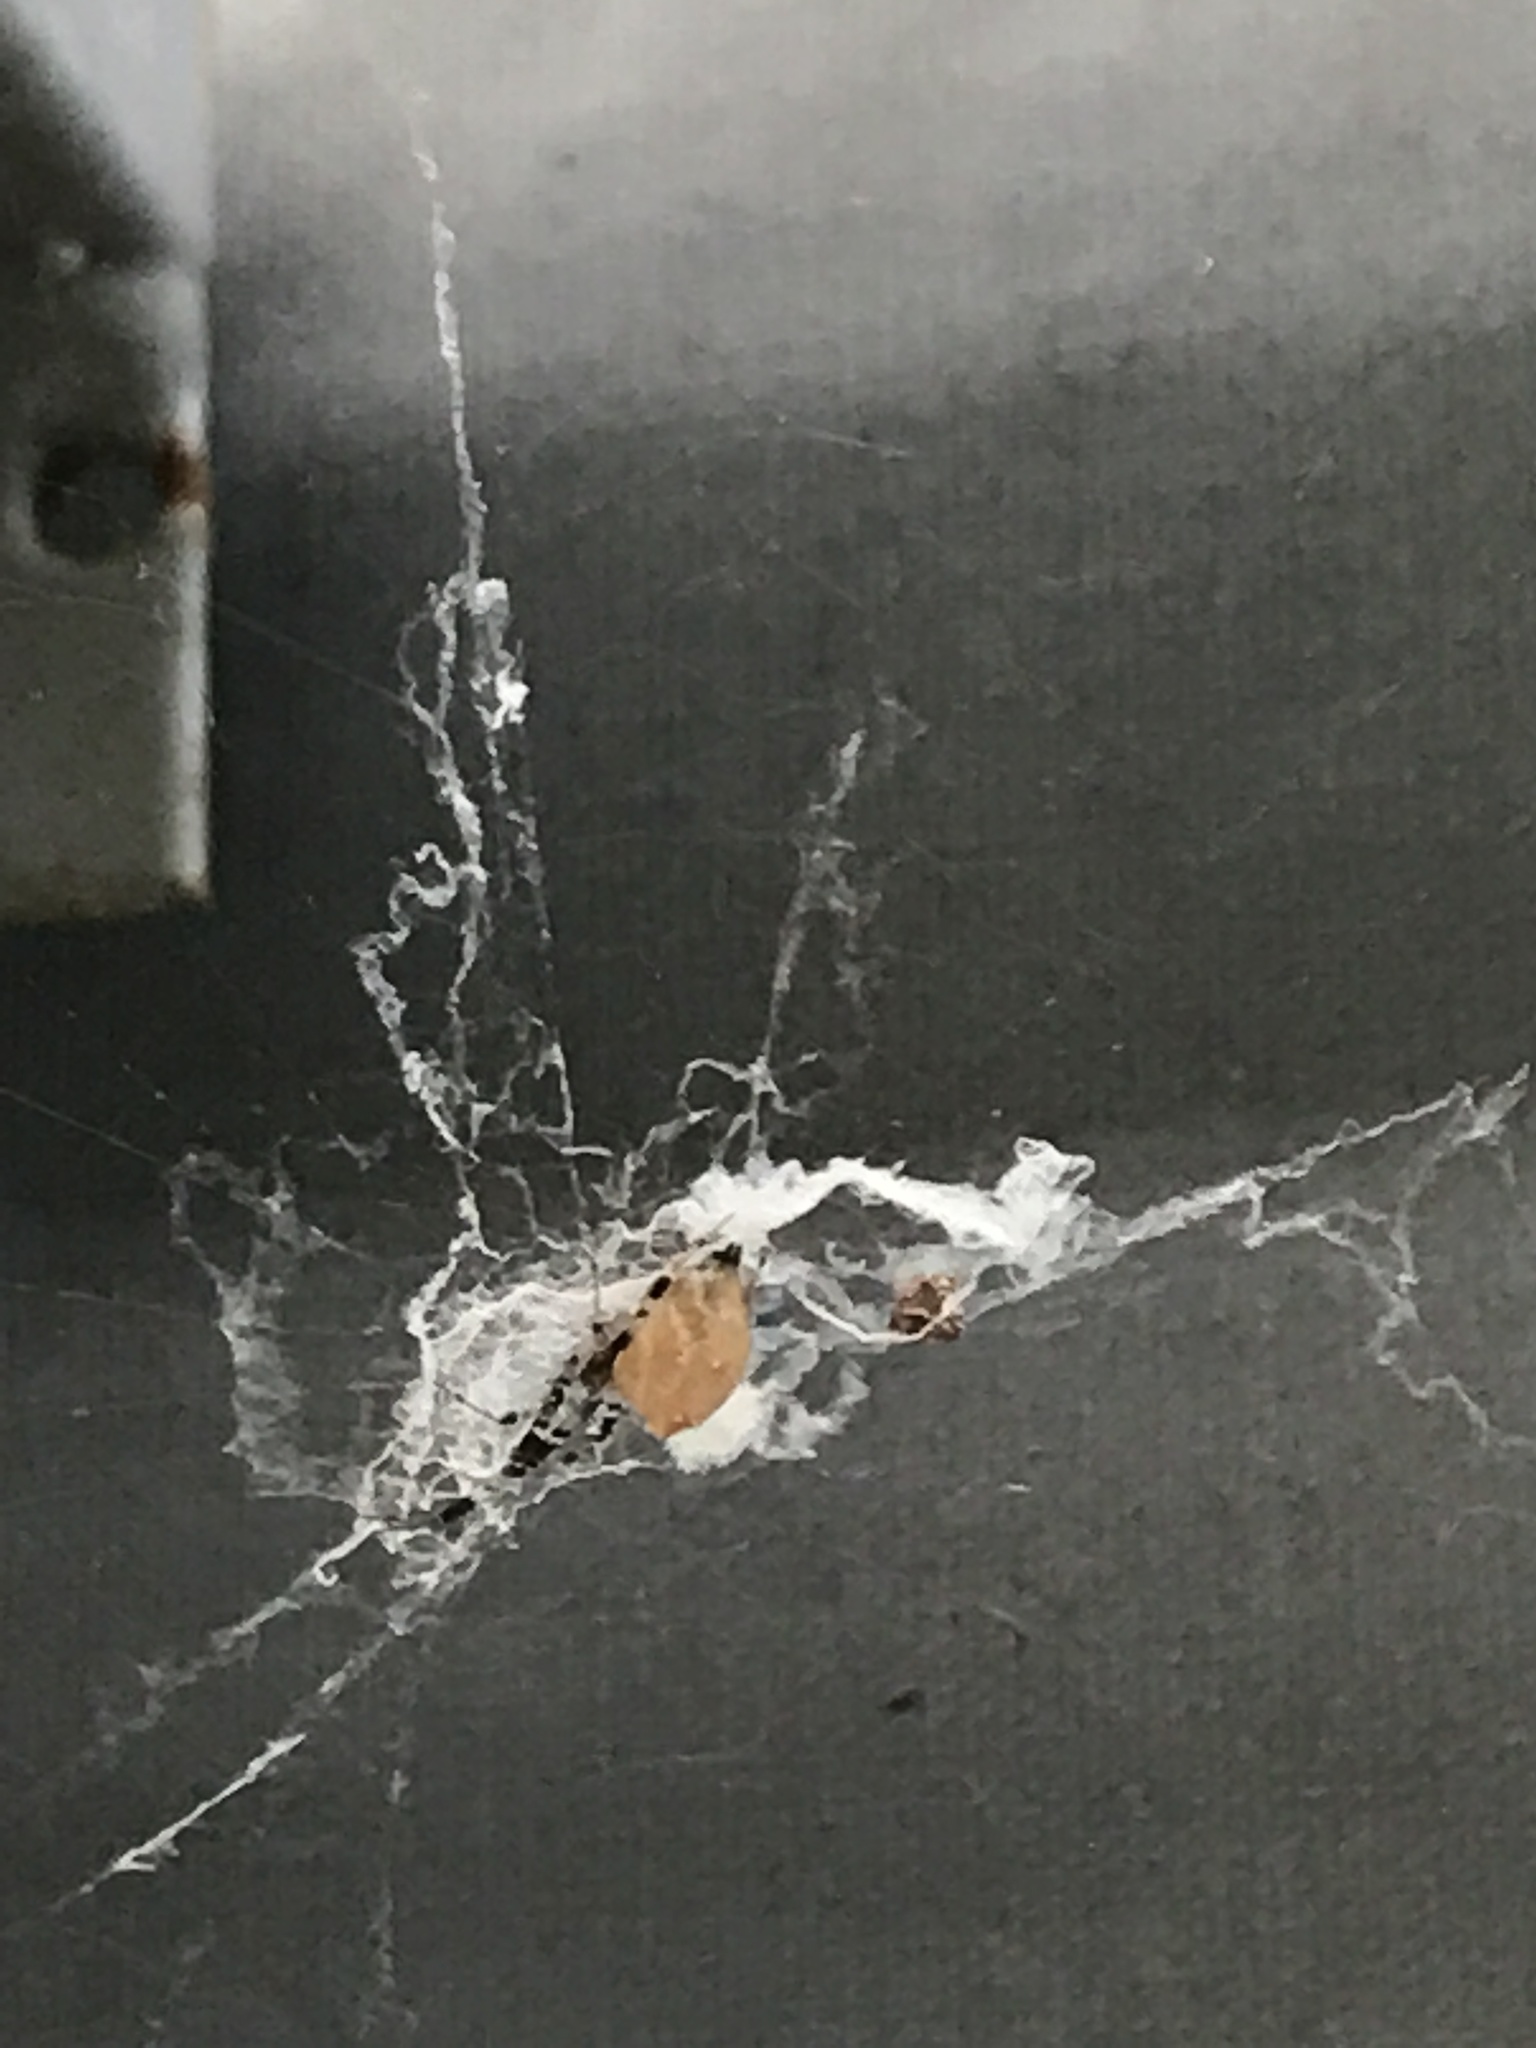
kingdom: Animalia
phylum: Arthropoda
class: Arachnida
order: Araneae
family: Uloboridae
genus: Uloborus
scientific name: Uloborus plumipes
